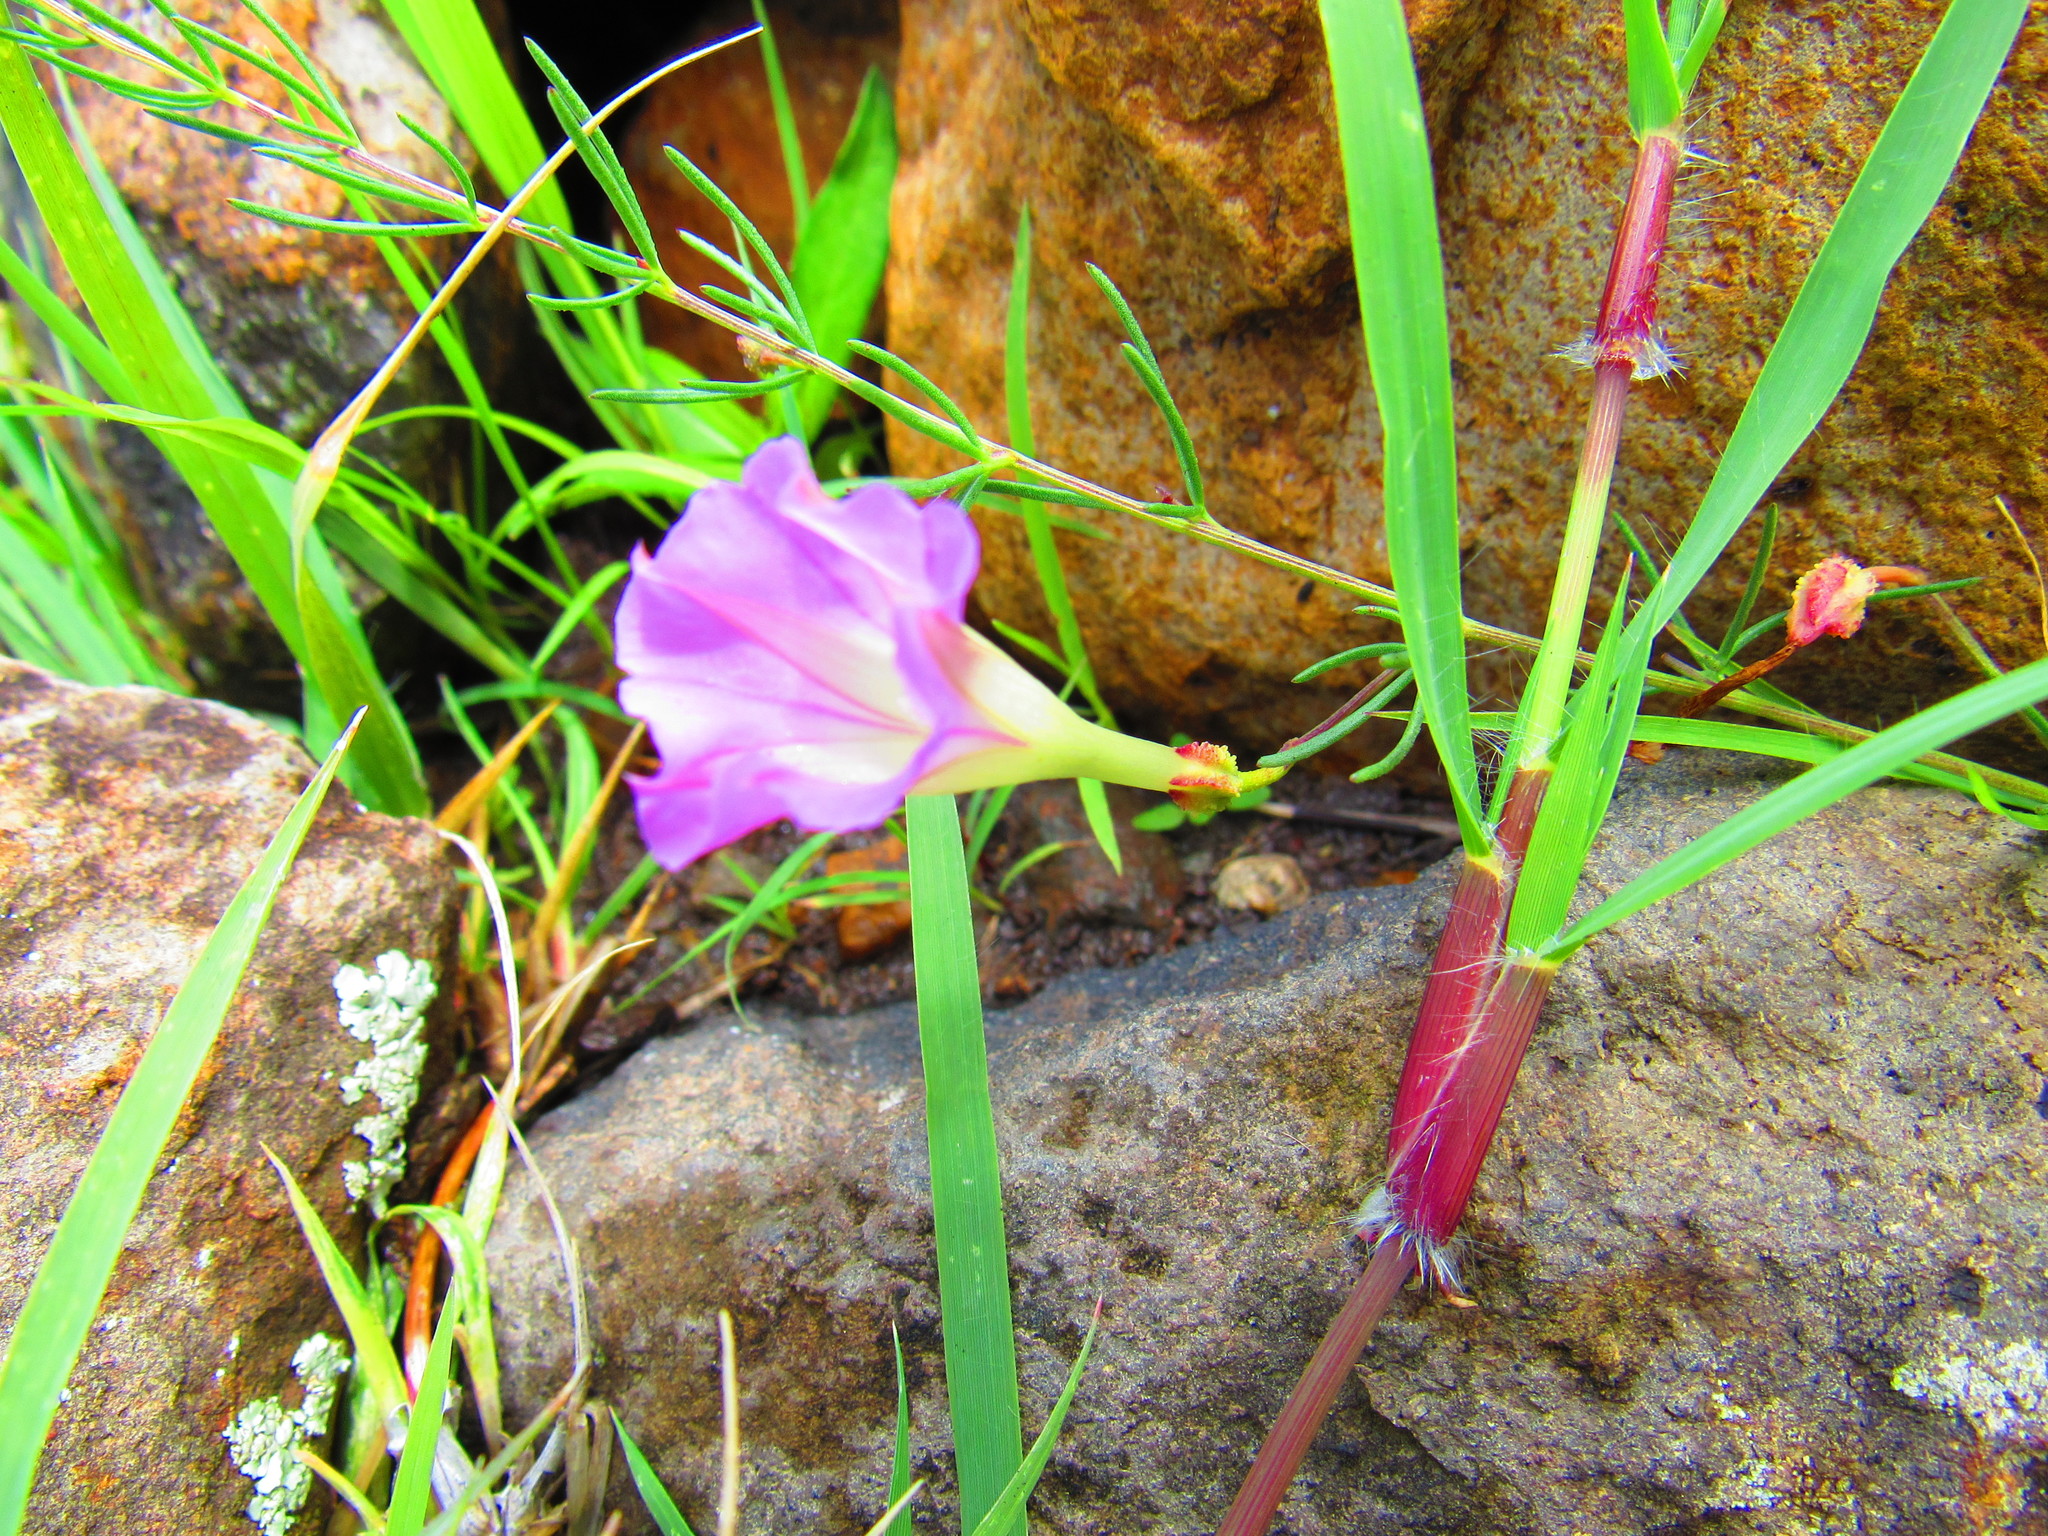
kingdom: Plantae
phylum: Tracheophyta
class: Magnoliopsida
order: Solanales
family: Convolvulaceae
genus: Ipomoea
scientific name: Ipomoea capillacea
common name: Purple morning-glory
